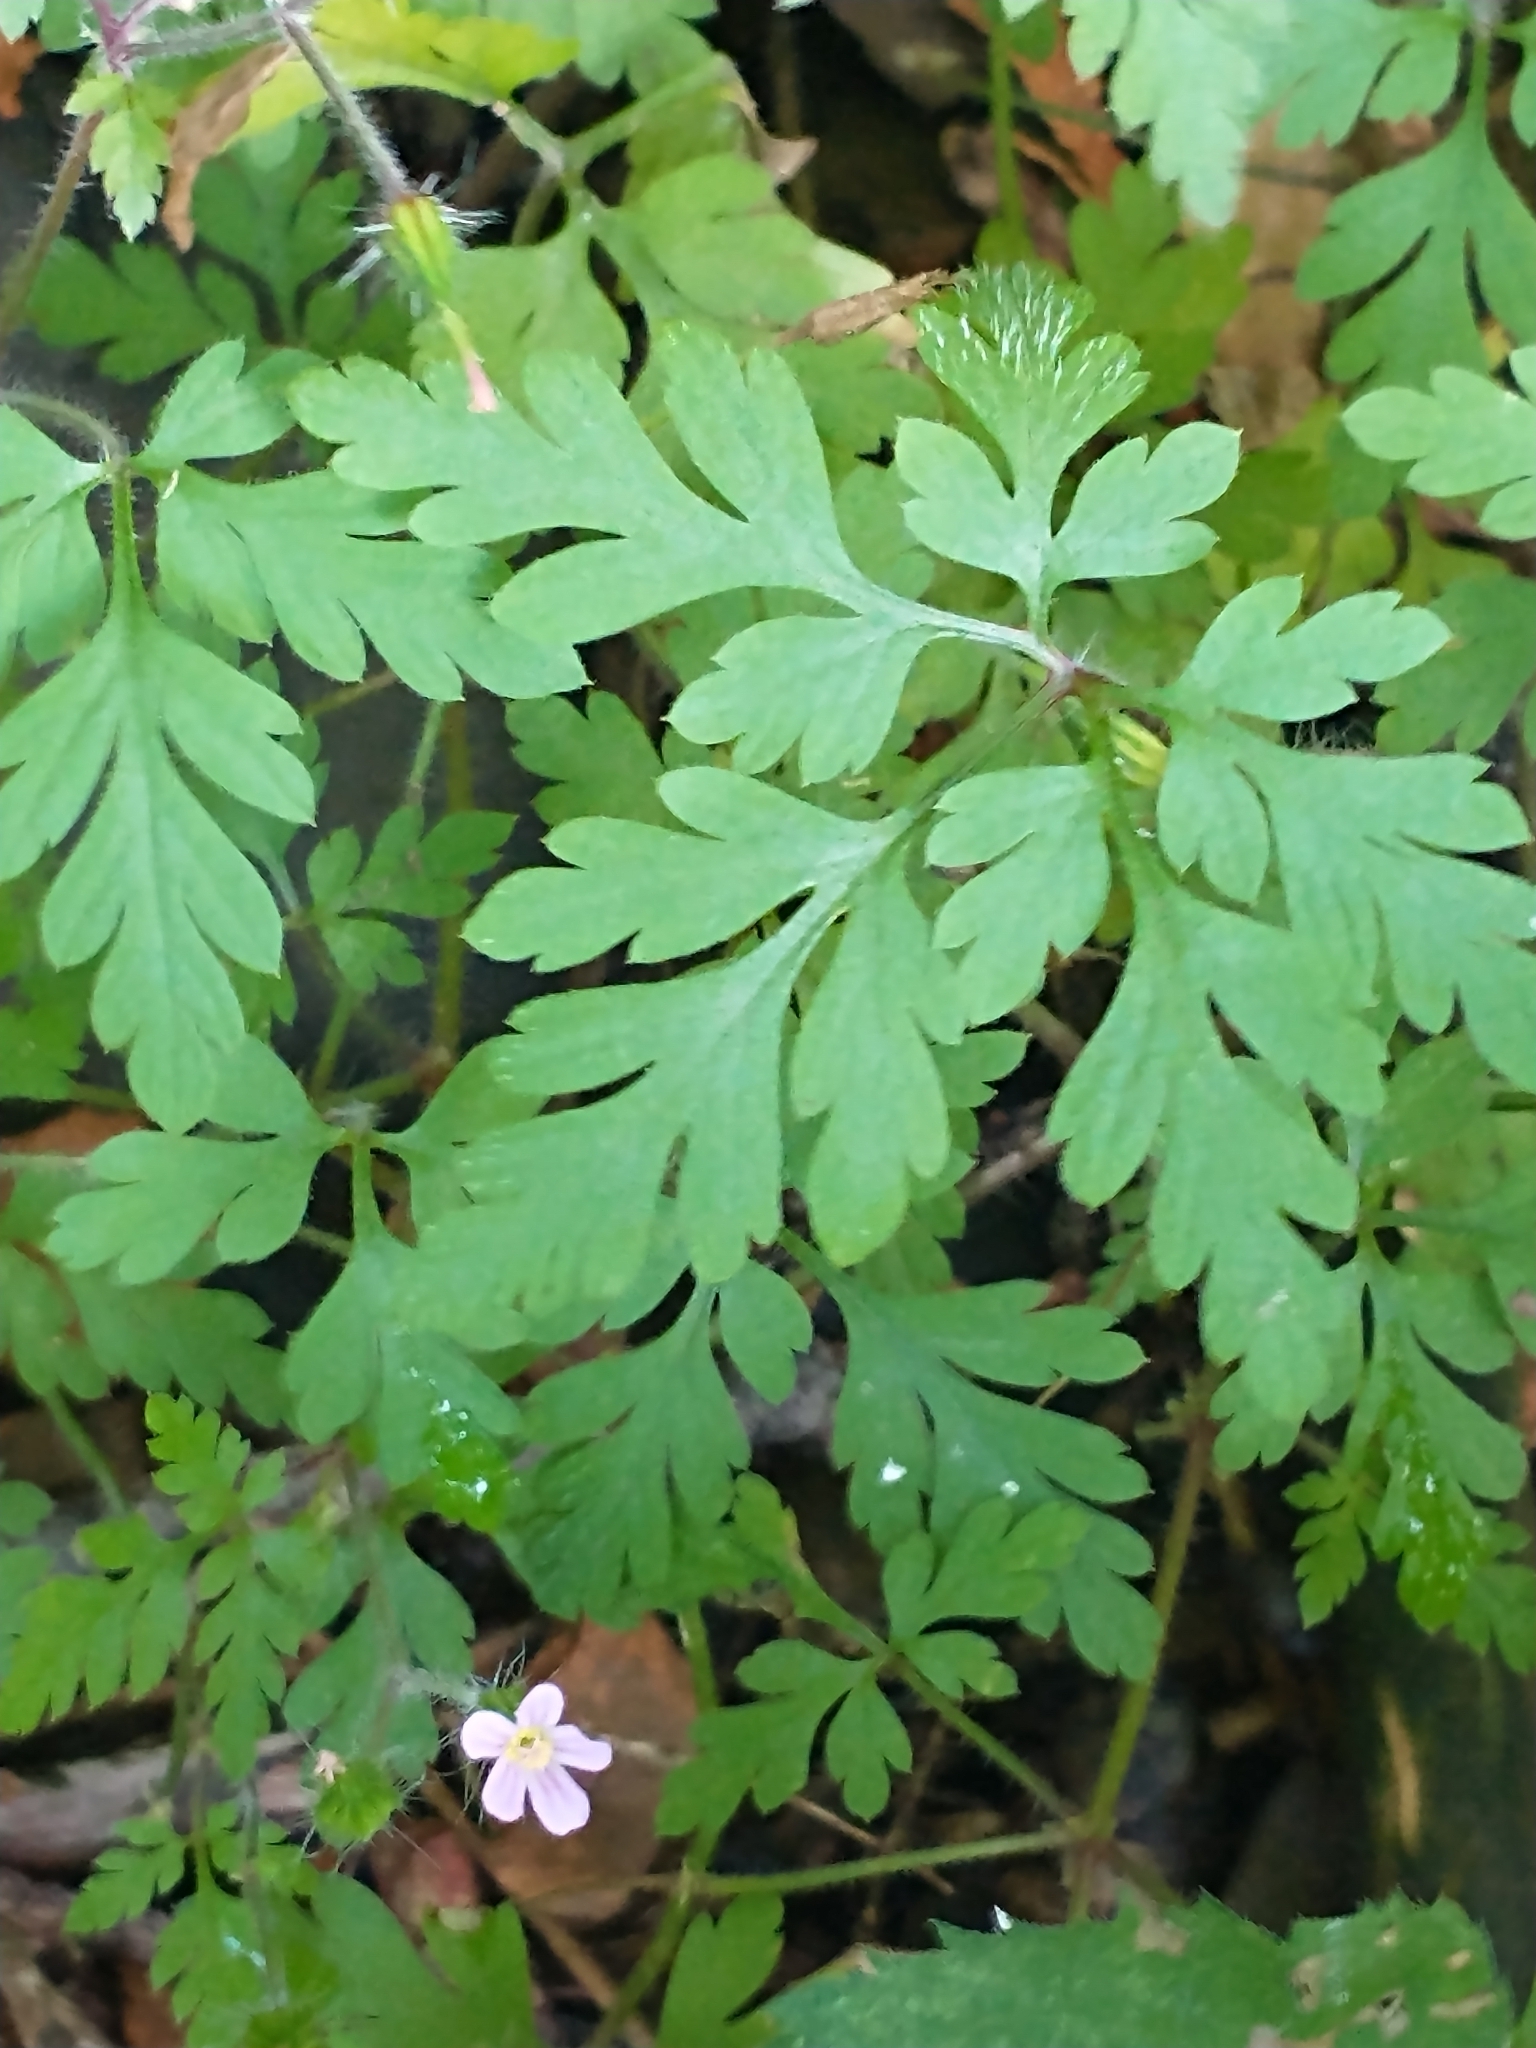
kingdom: Plantae
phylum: Tracheophyta
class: Magnoliopsida
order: Geraniales
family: Geraniaceae
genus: Geranium
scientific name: Geranium robertianum
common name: Herb-robert
